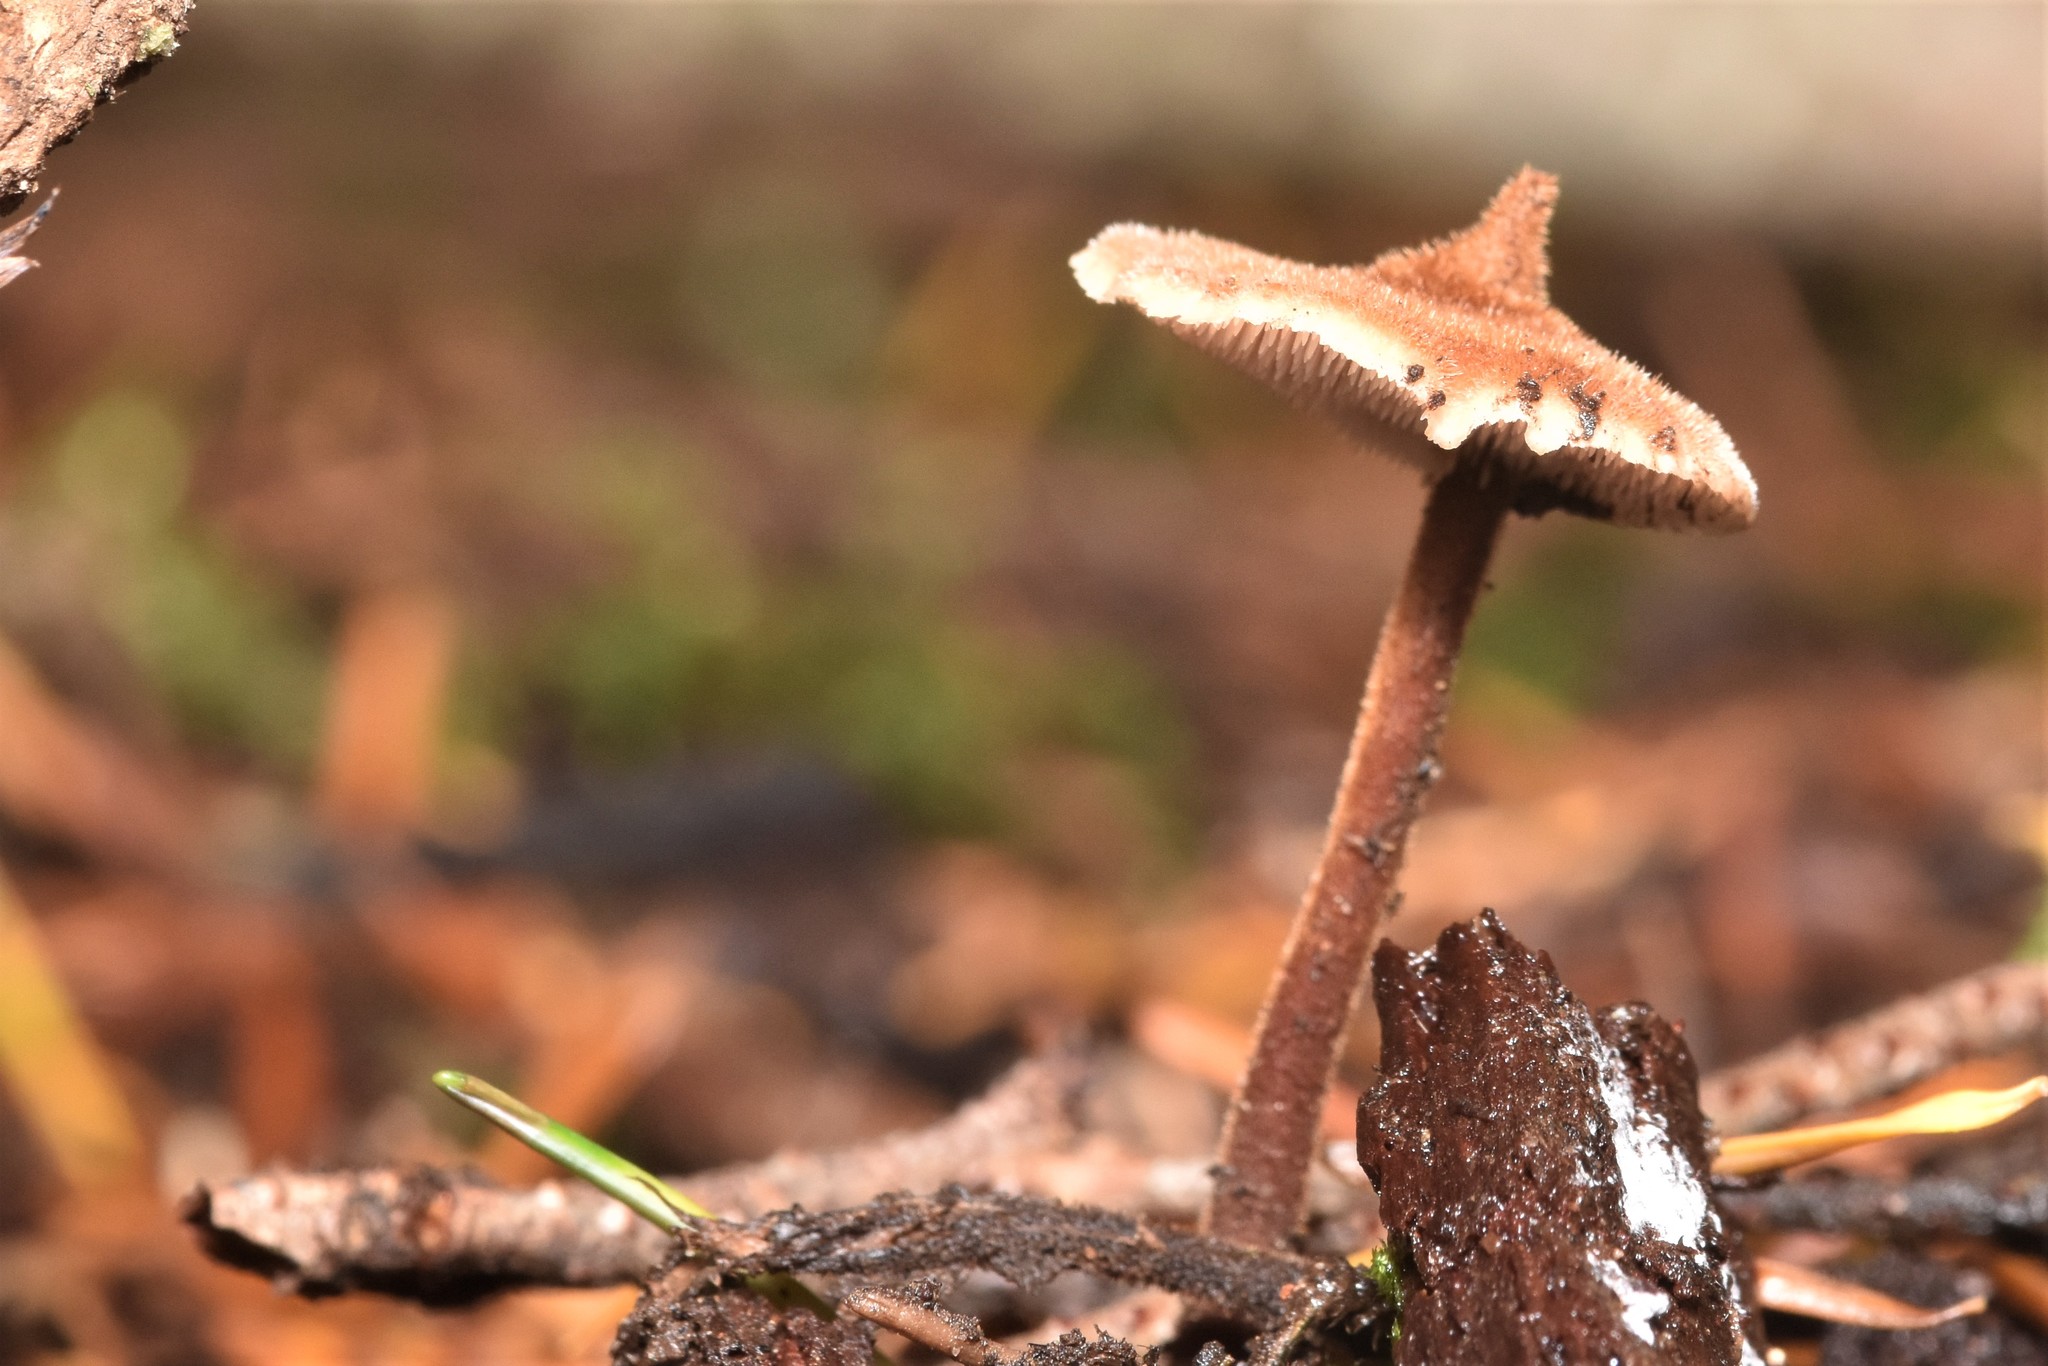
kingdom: Fungi
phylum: Basidiomycota
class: Agaricomycetes
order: Russulales
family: Auriscalpiaceae
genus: Auriscalpium
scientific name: Auriscalpium vulgare
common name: Earpick fungus
